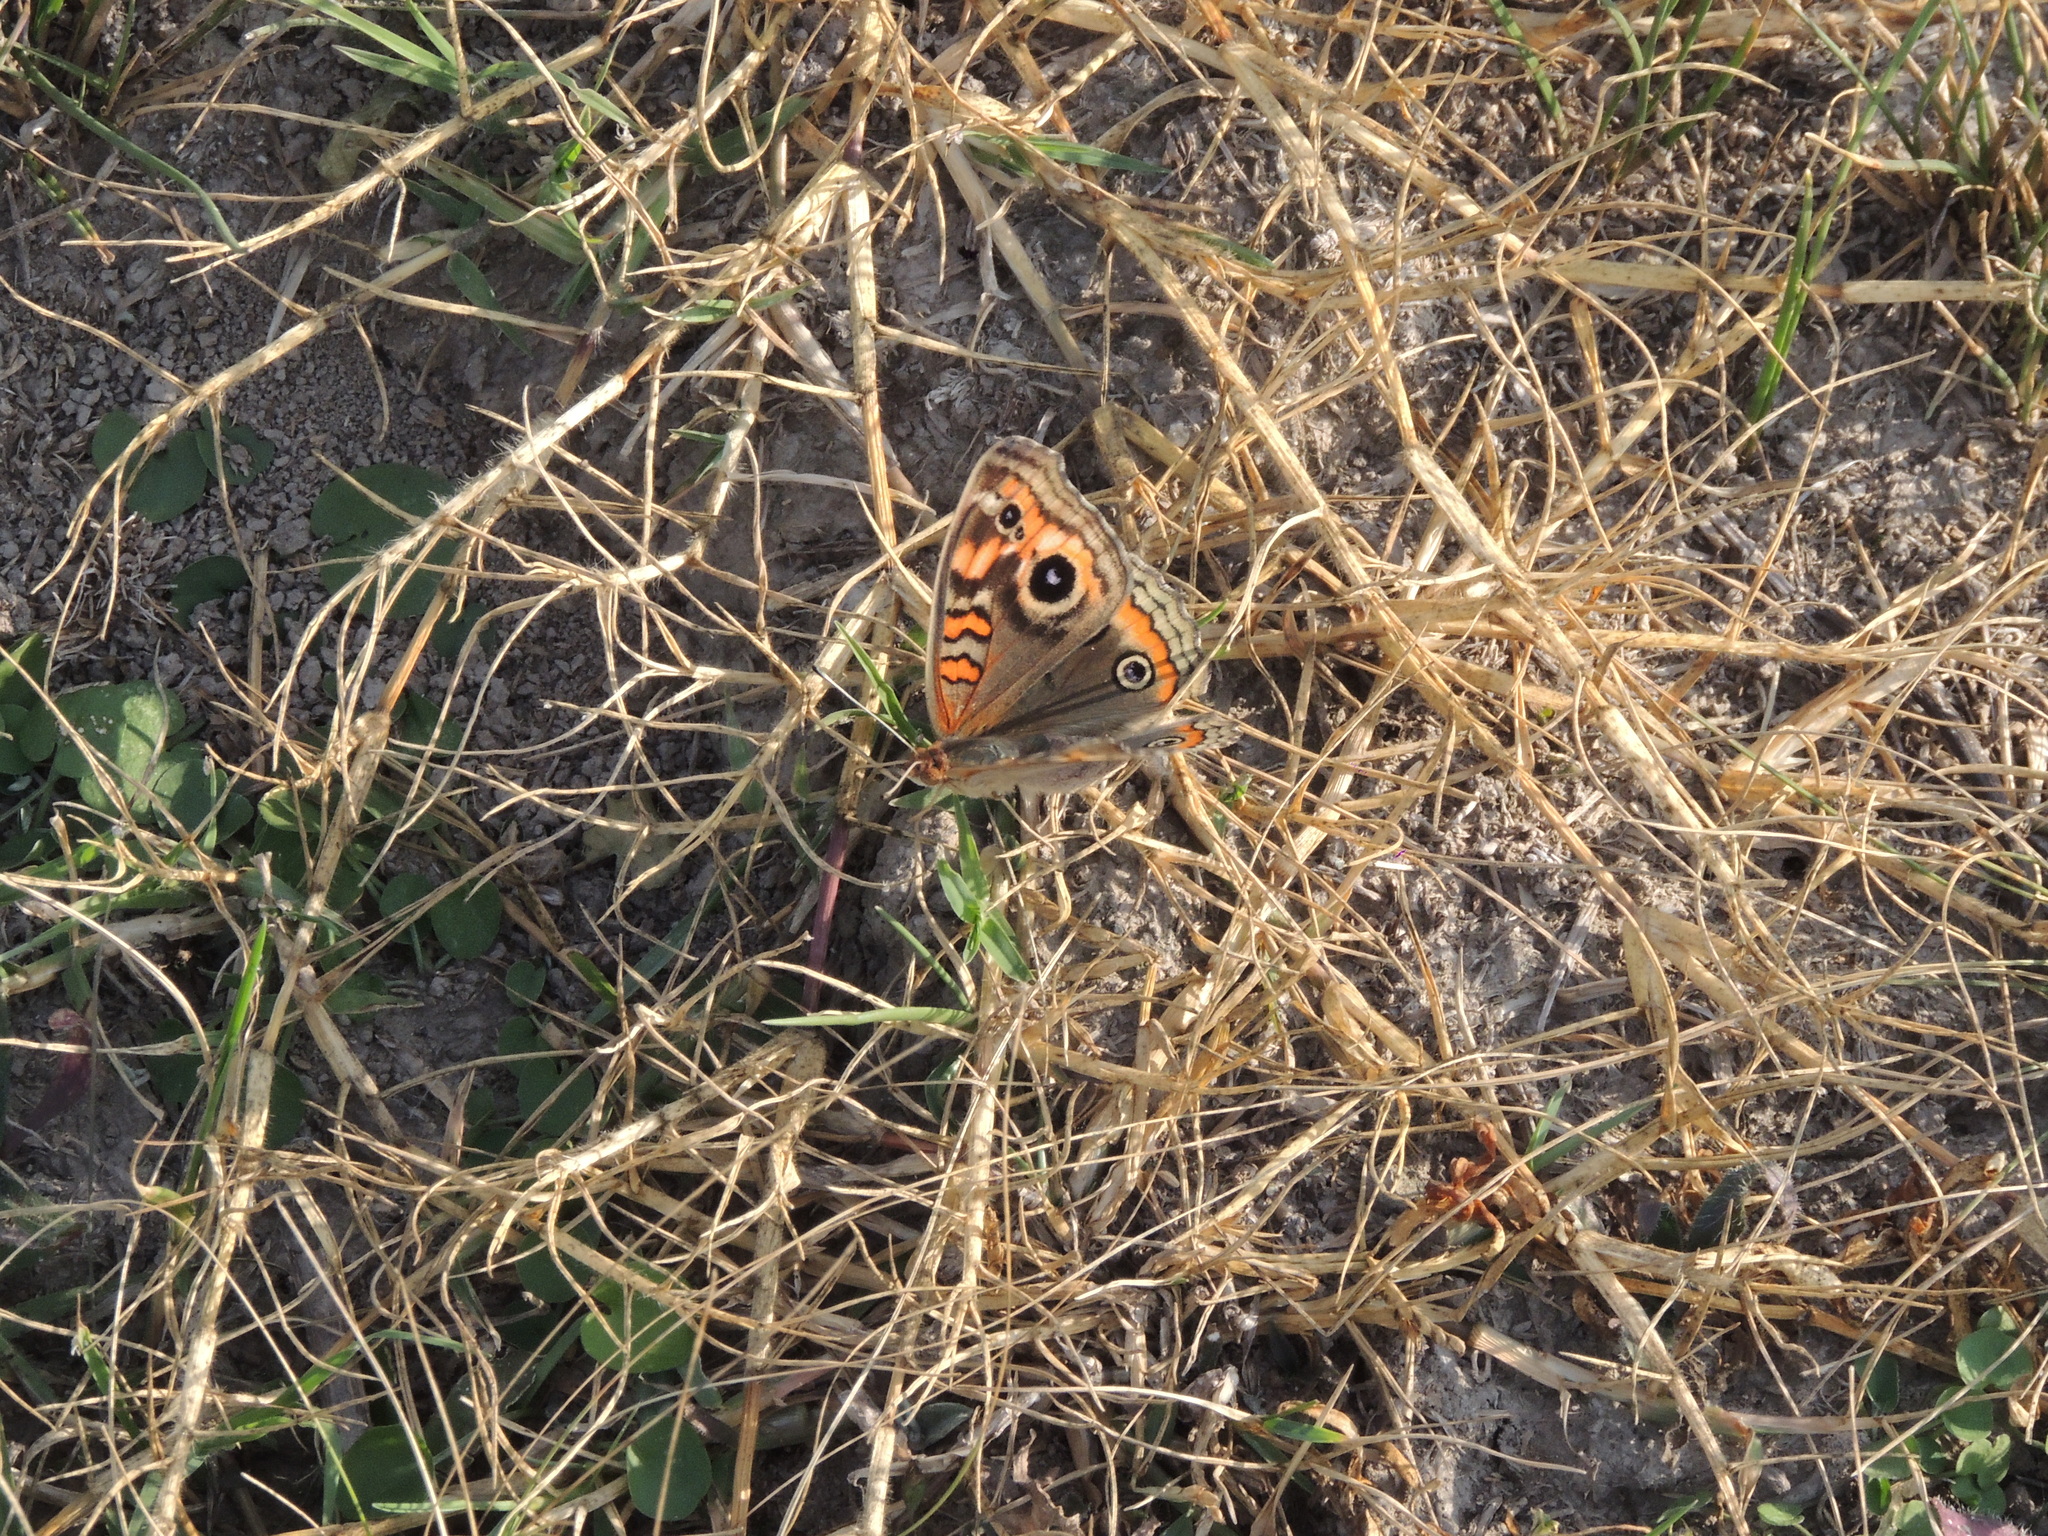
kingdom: Animalia
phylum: Arthropoda
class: Insecta
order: Lepidoptera
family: Nymphalidae
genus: Junonia
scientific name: Junonia lavinia
